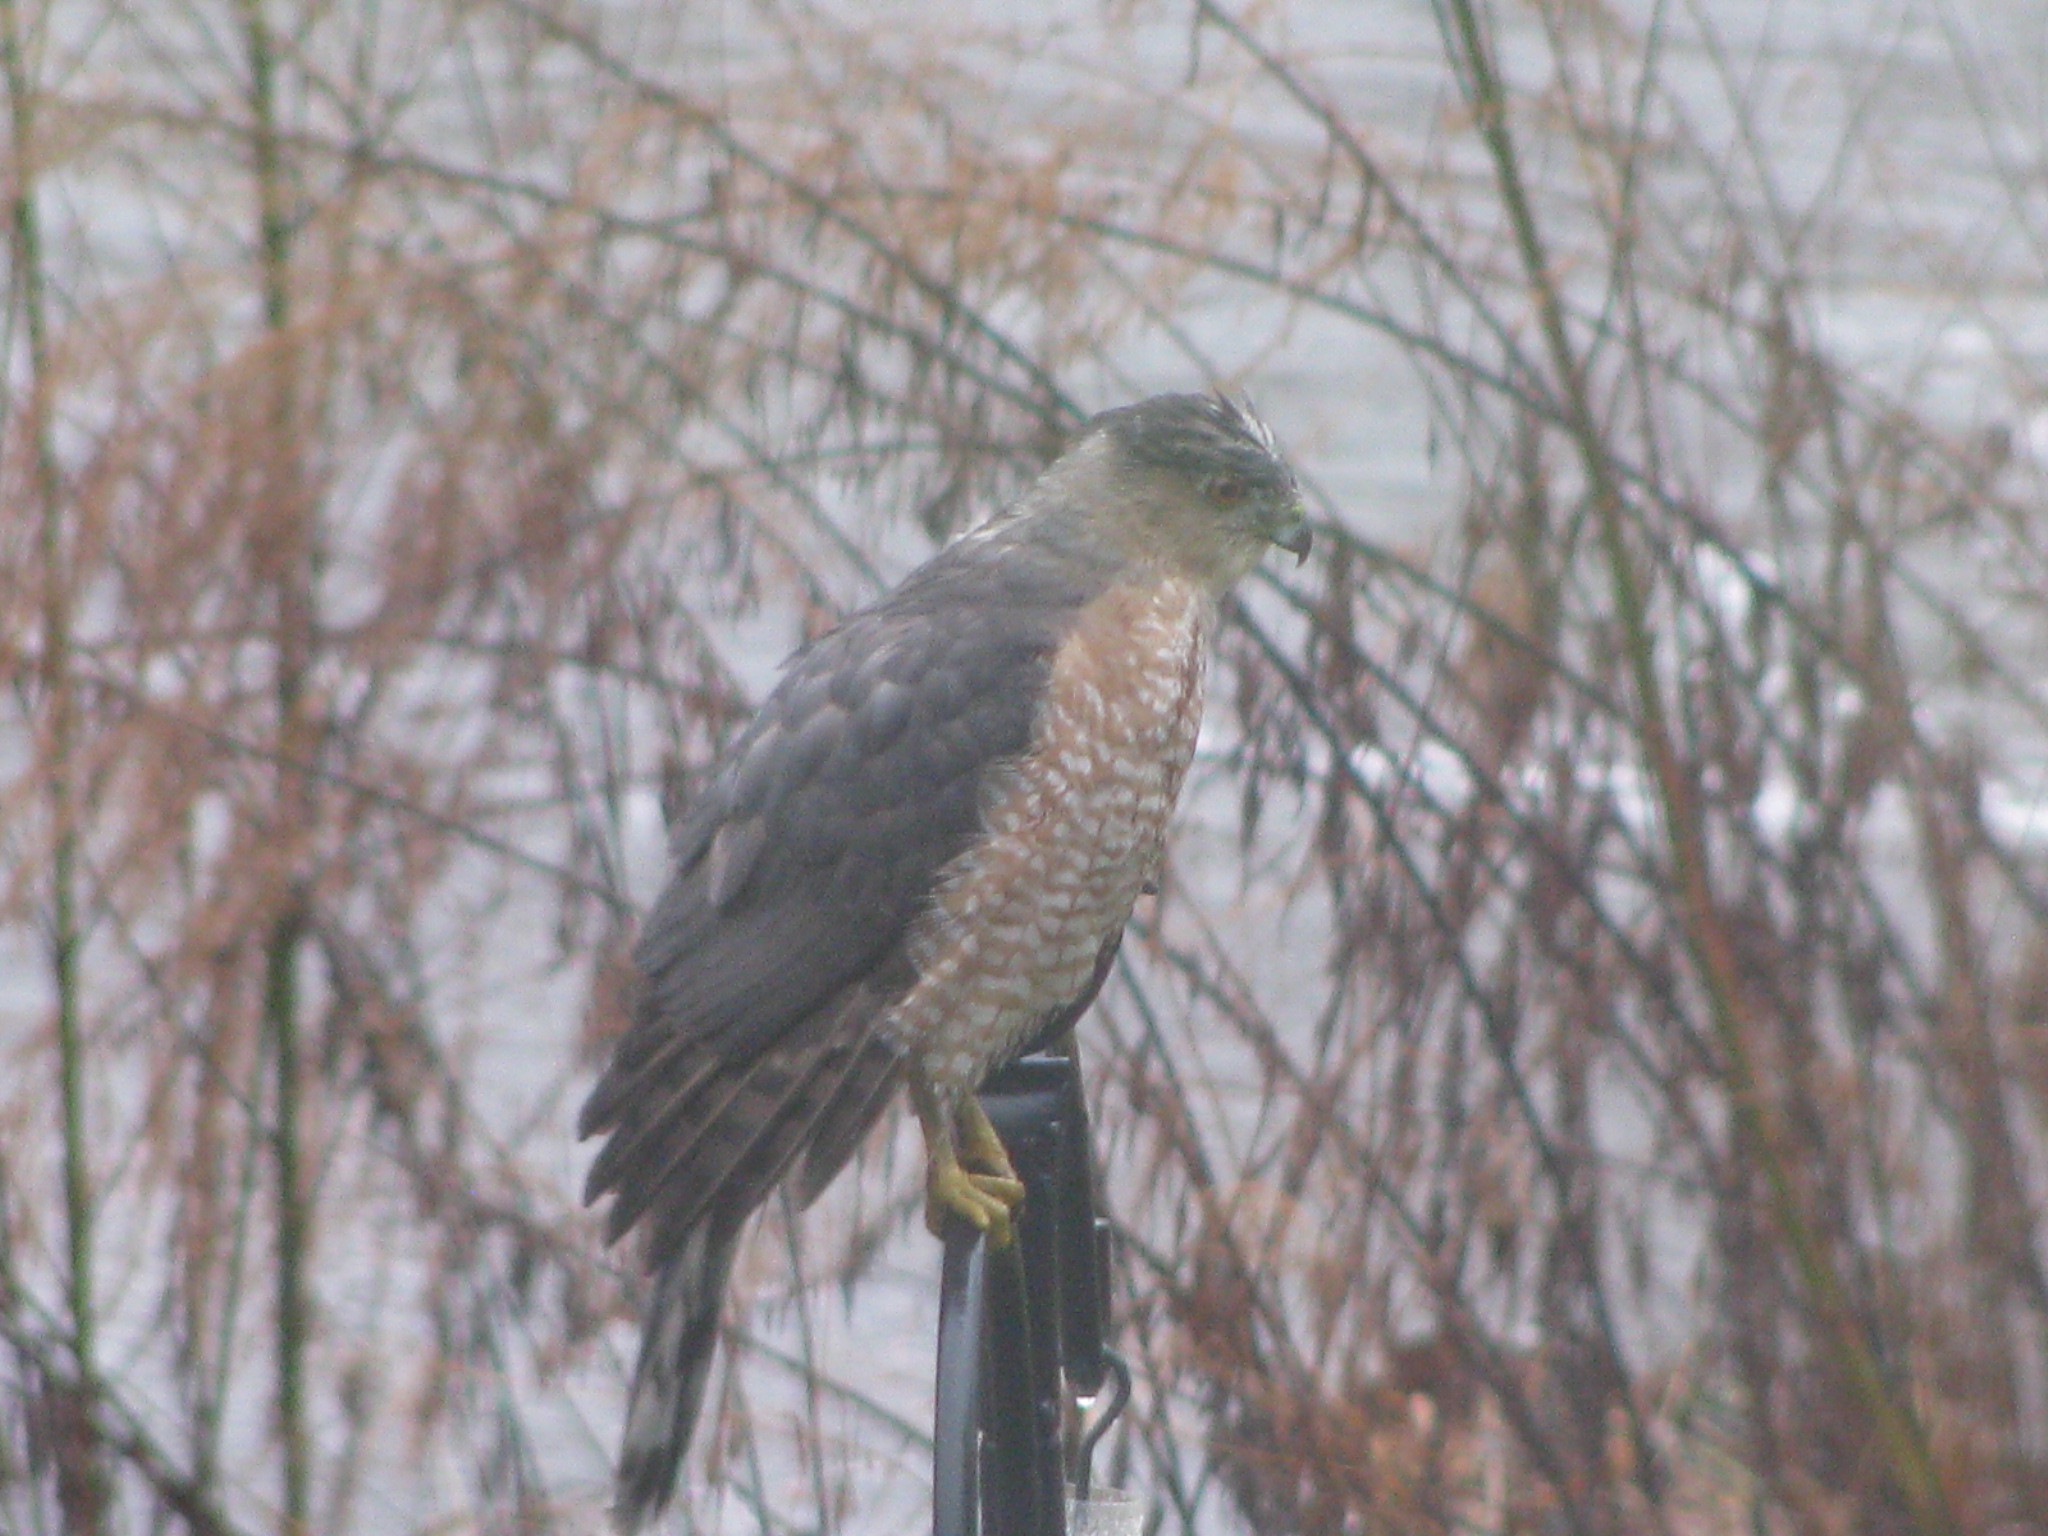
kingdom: Animalia
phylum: Chordata
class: Aves
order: Accipitriformes
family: Accipitridae
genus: Accipiter
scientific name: Accipiter cooperii
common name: Cooper's hawk
